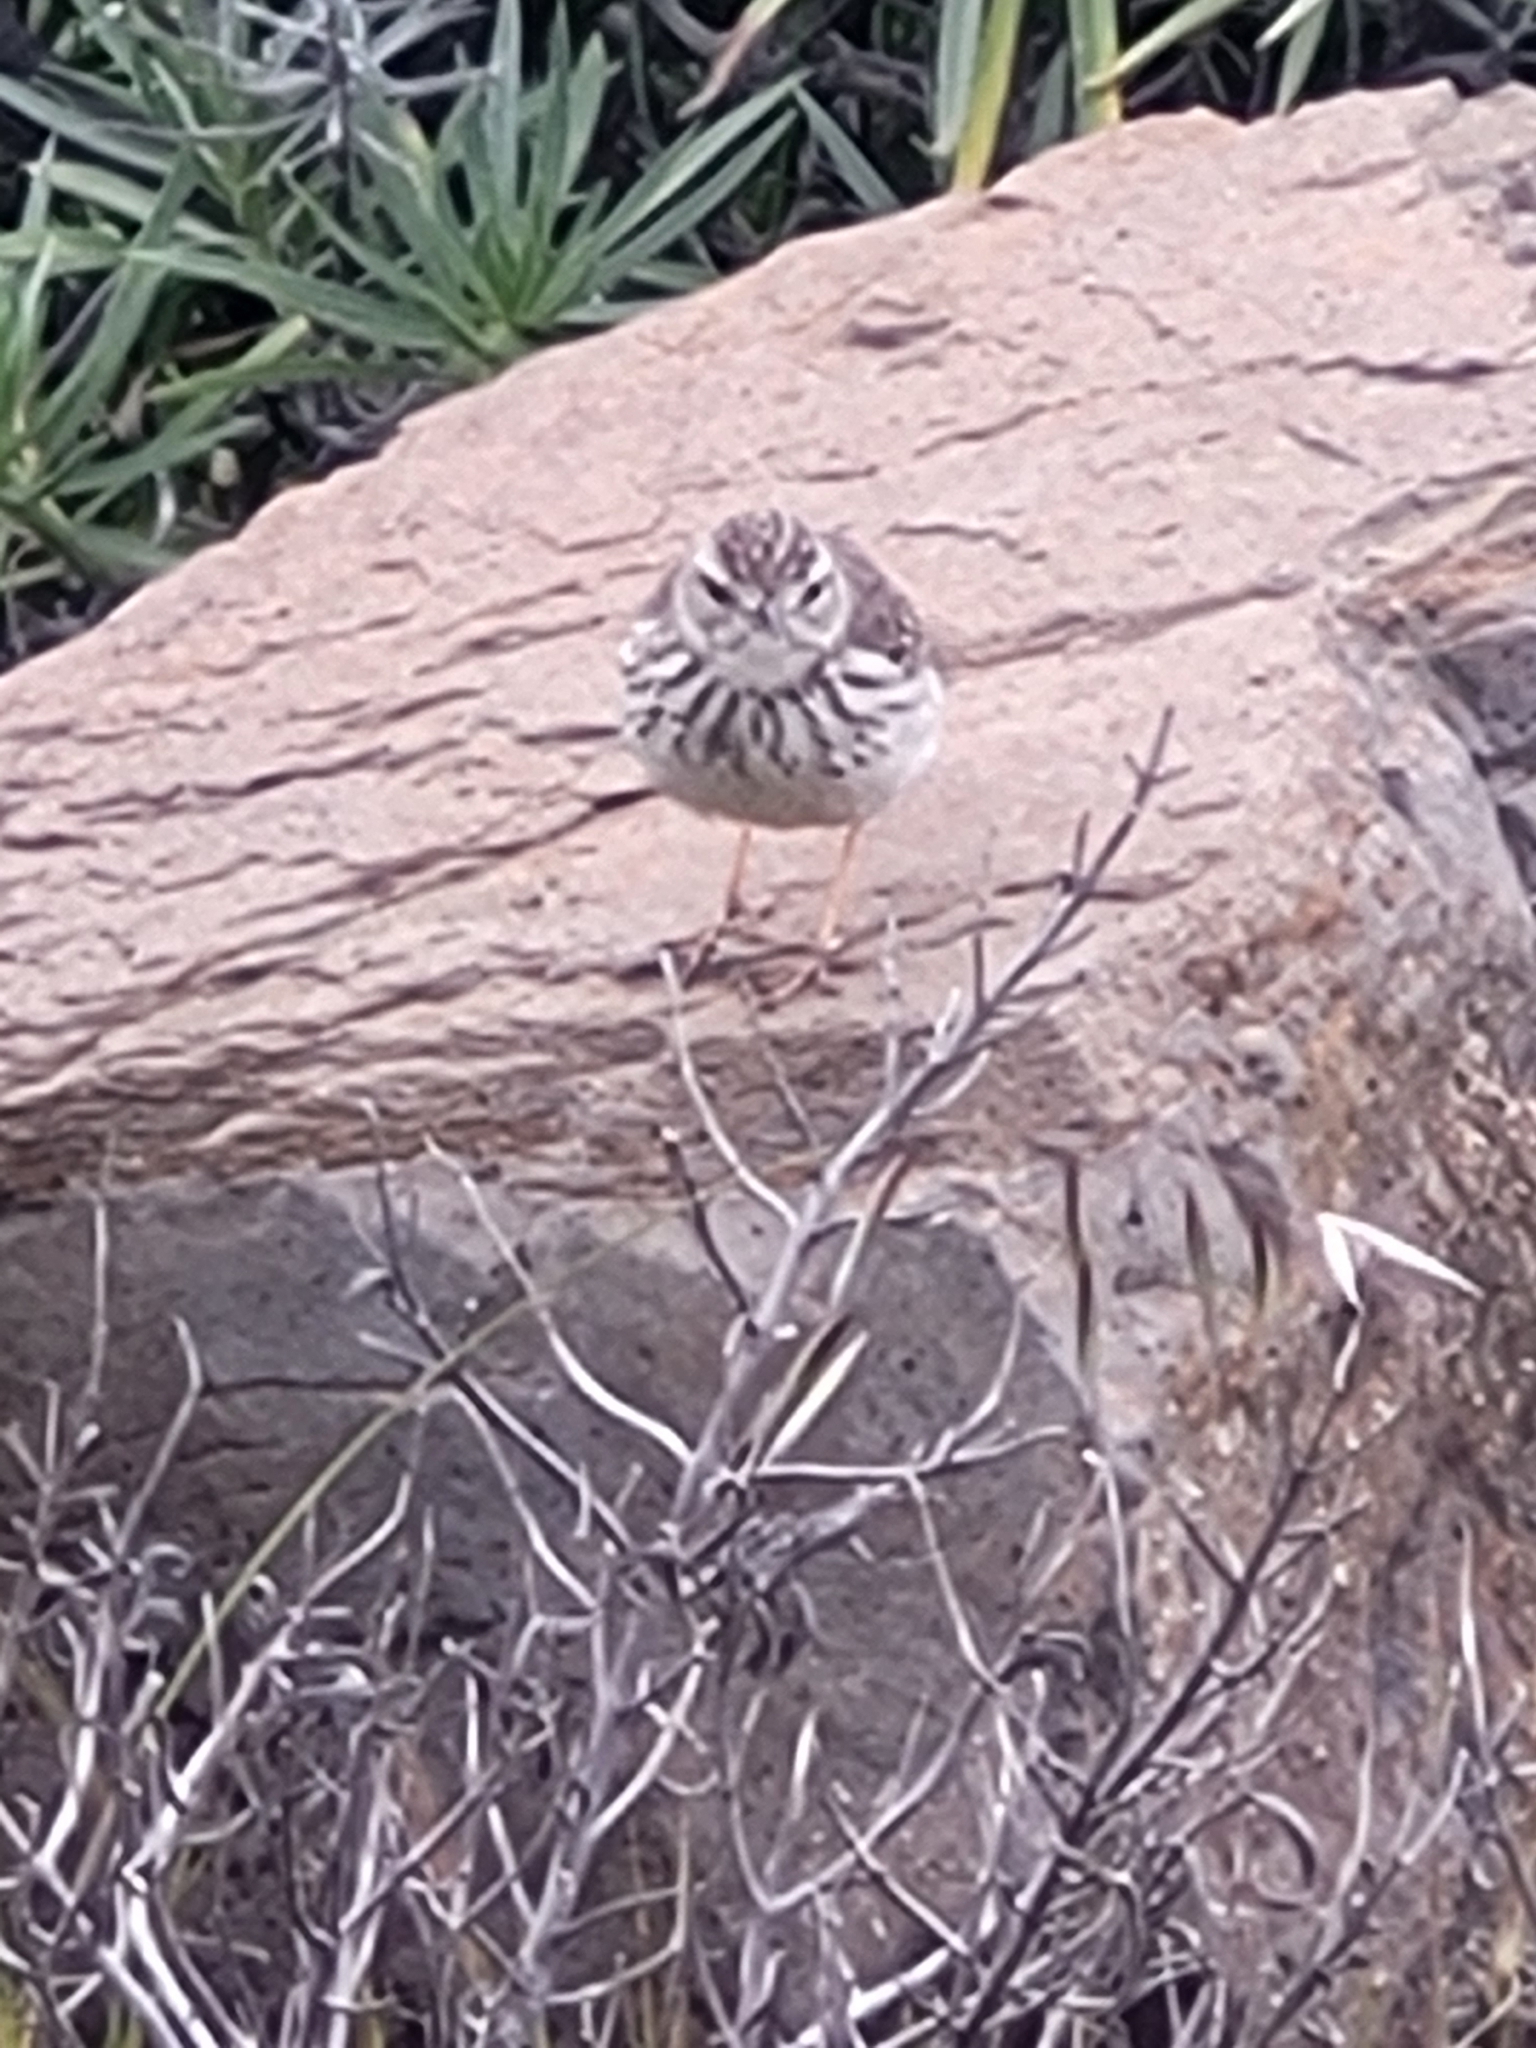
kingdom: Animalia
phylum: Chordata
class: Aves
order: Passeriformes
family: Motacillidae
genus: Anthus
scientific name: Anthus berthelotii
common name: Berthelot's pipit
